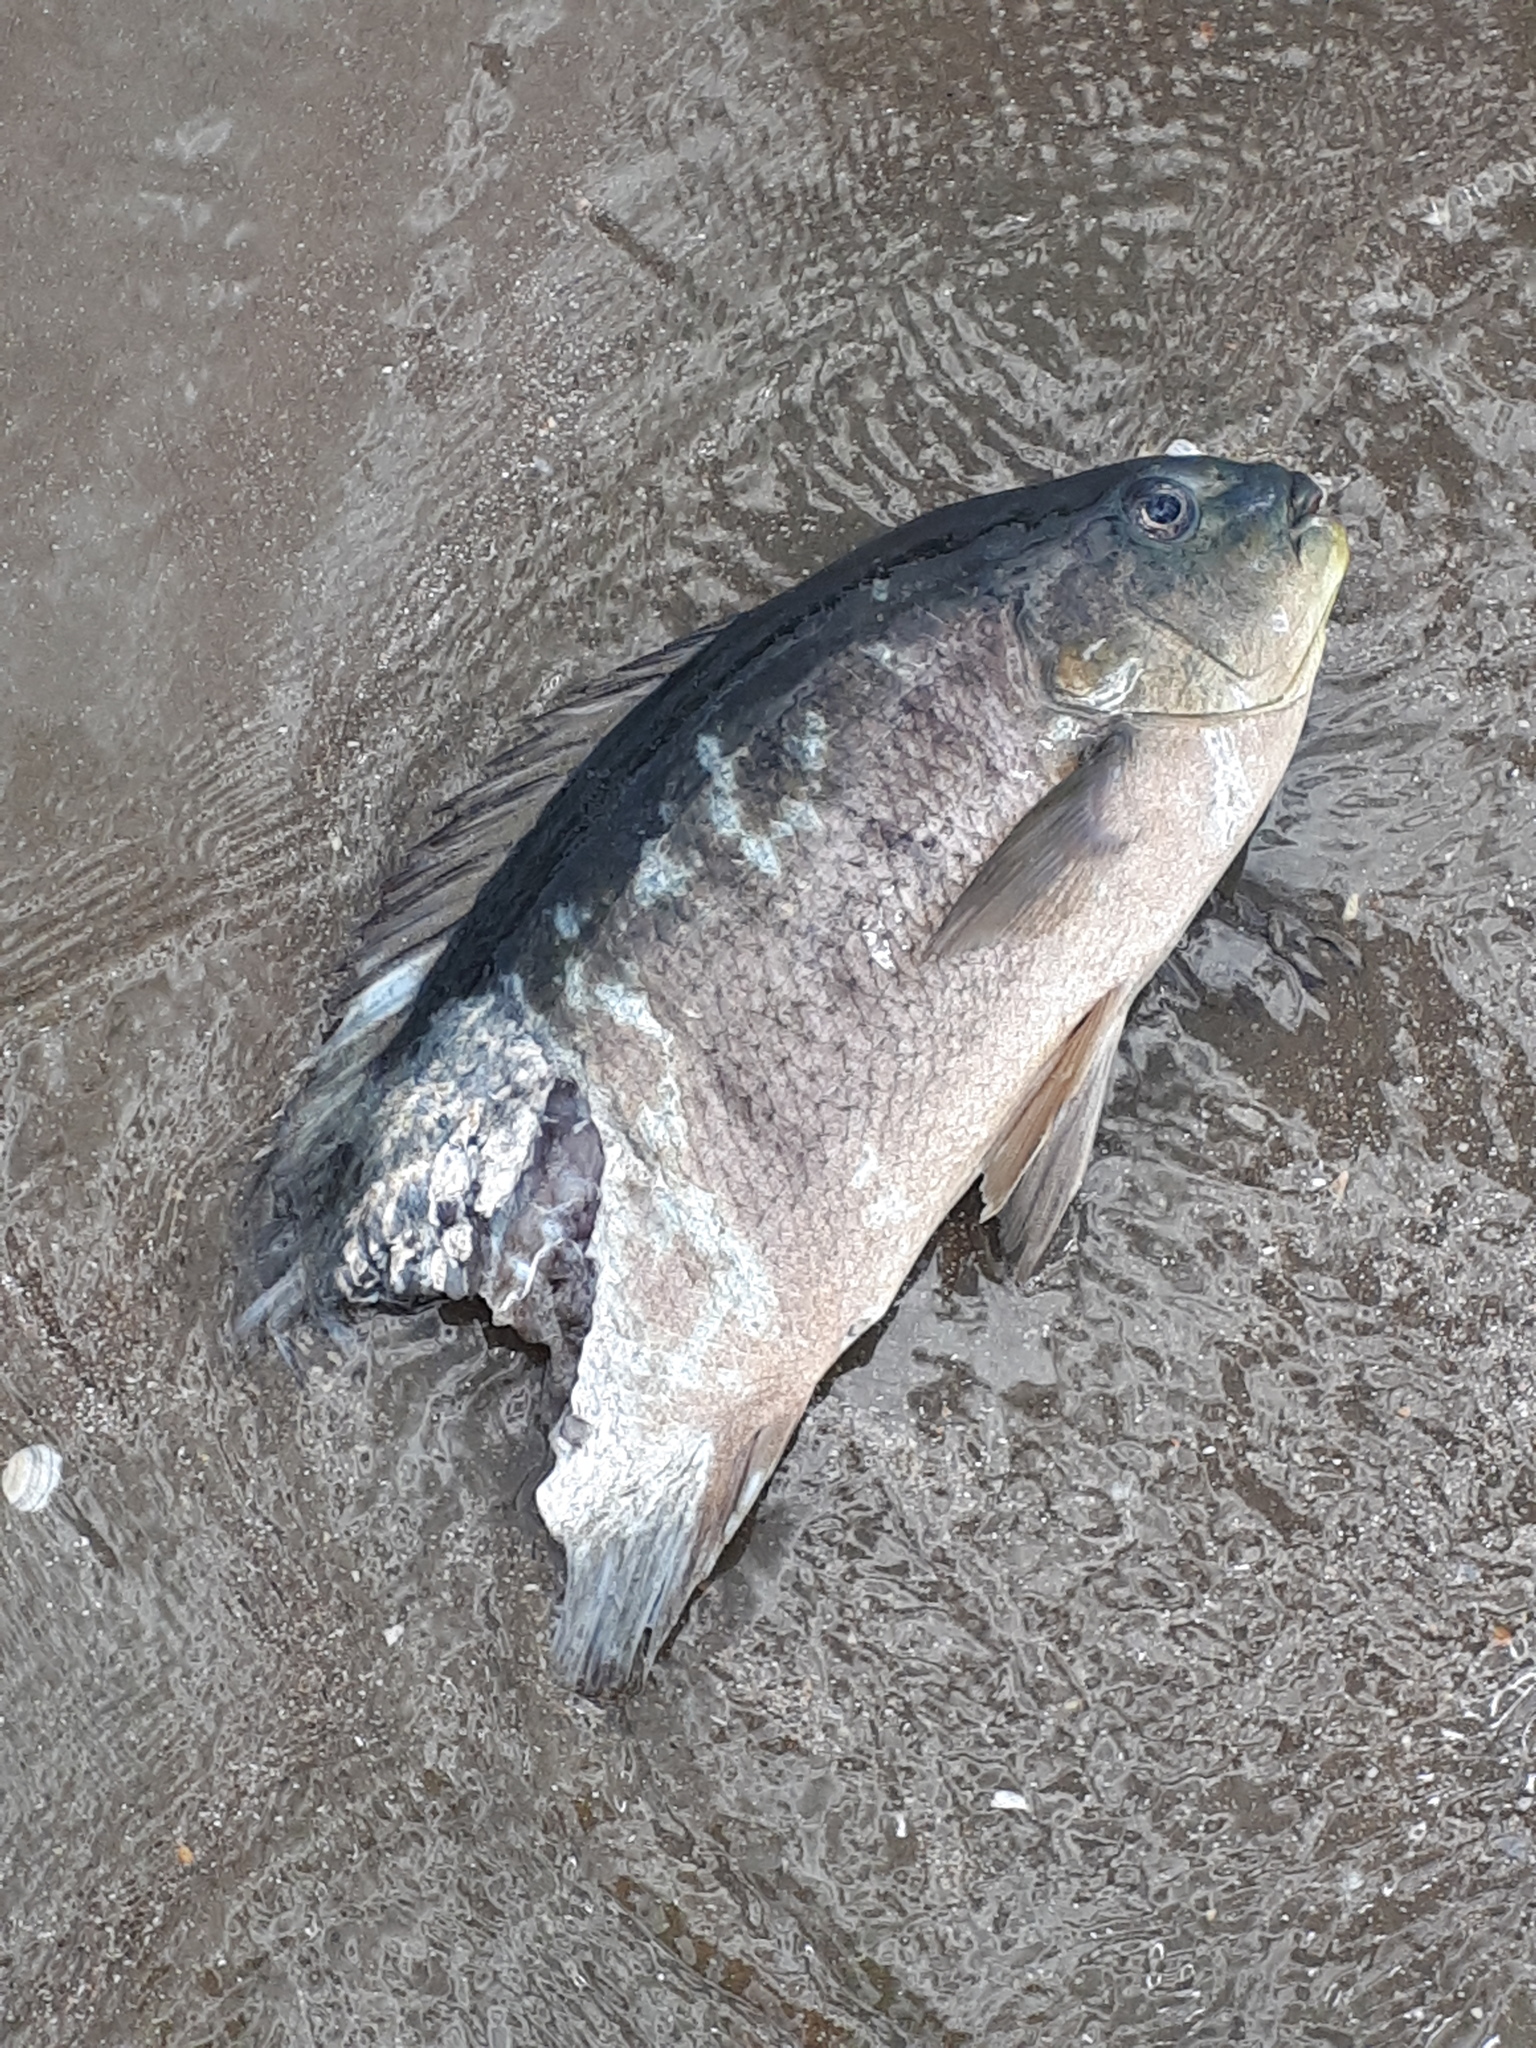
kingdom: Animalia
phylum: Chordata
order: Perciformes
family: Kyphosidae
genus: Girella
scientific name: Girella tricuspidata
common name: Parore
